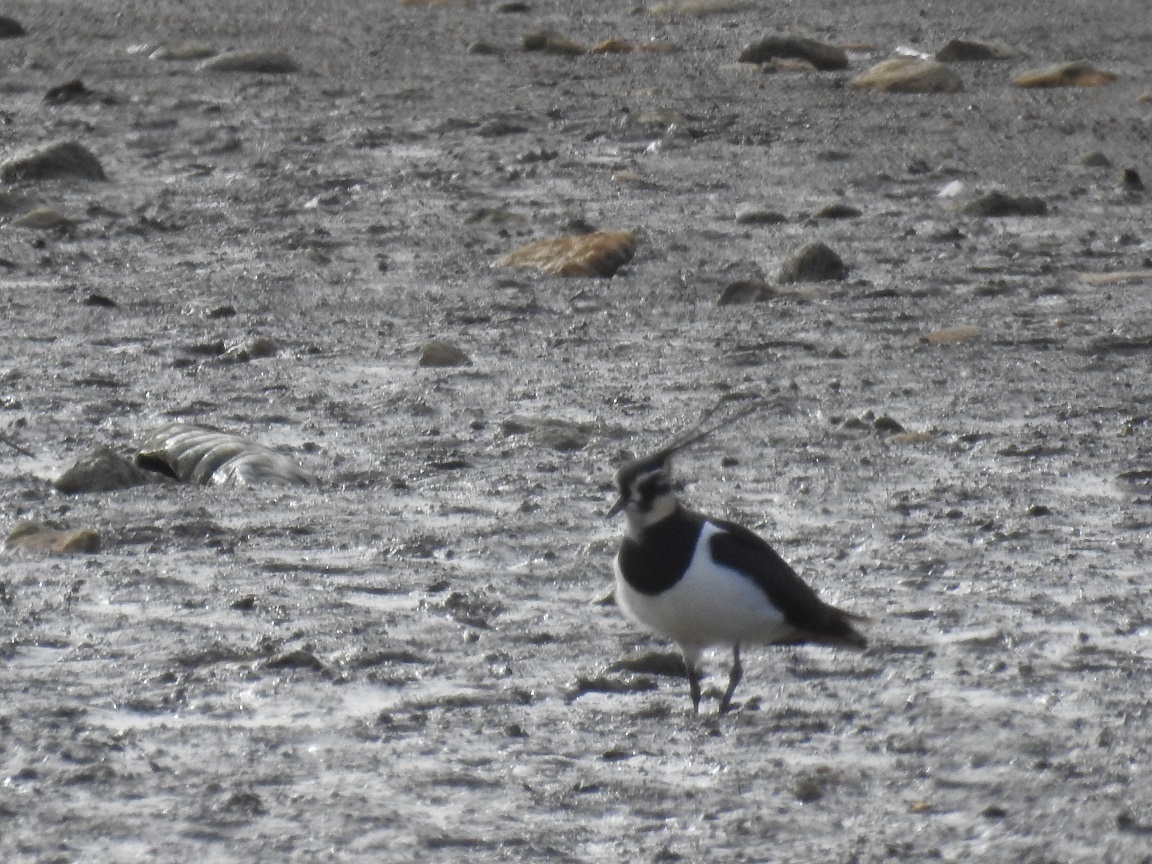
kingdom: Animalia
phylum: Chordata
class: Aves
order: Charadriiformes
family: Charadriidae
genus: Vanellus
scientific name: Vanellus vanellus
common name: Northern lapwing
